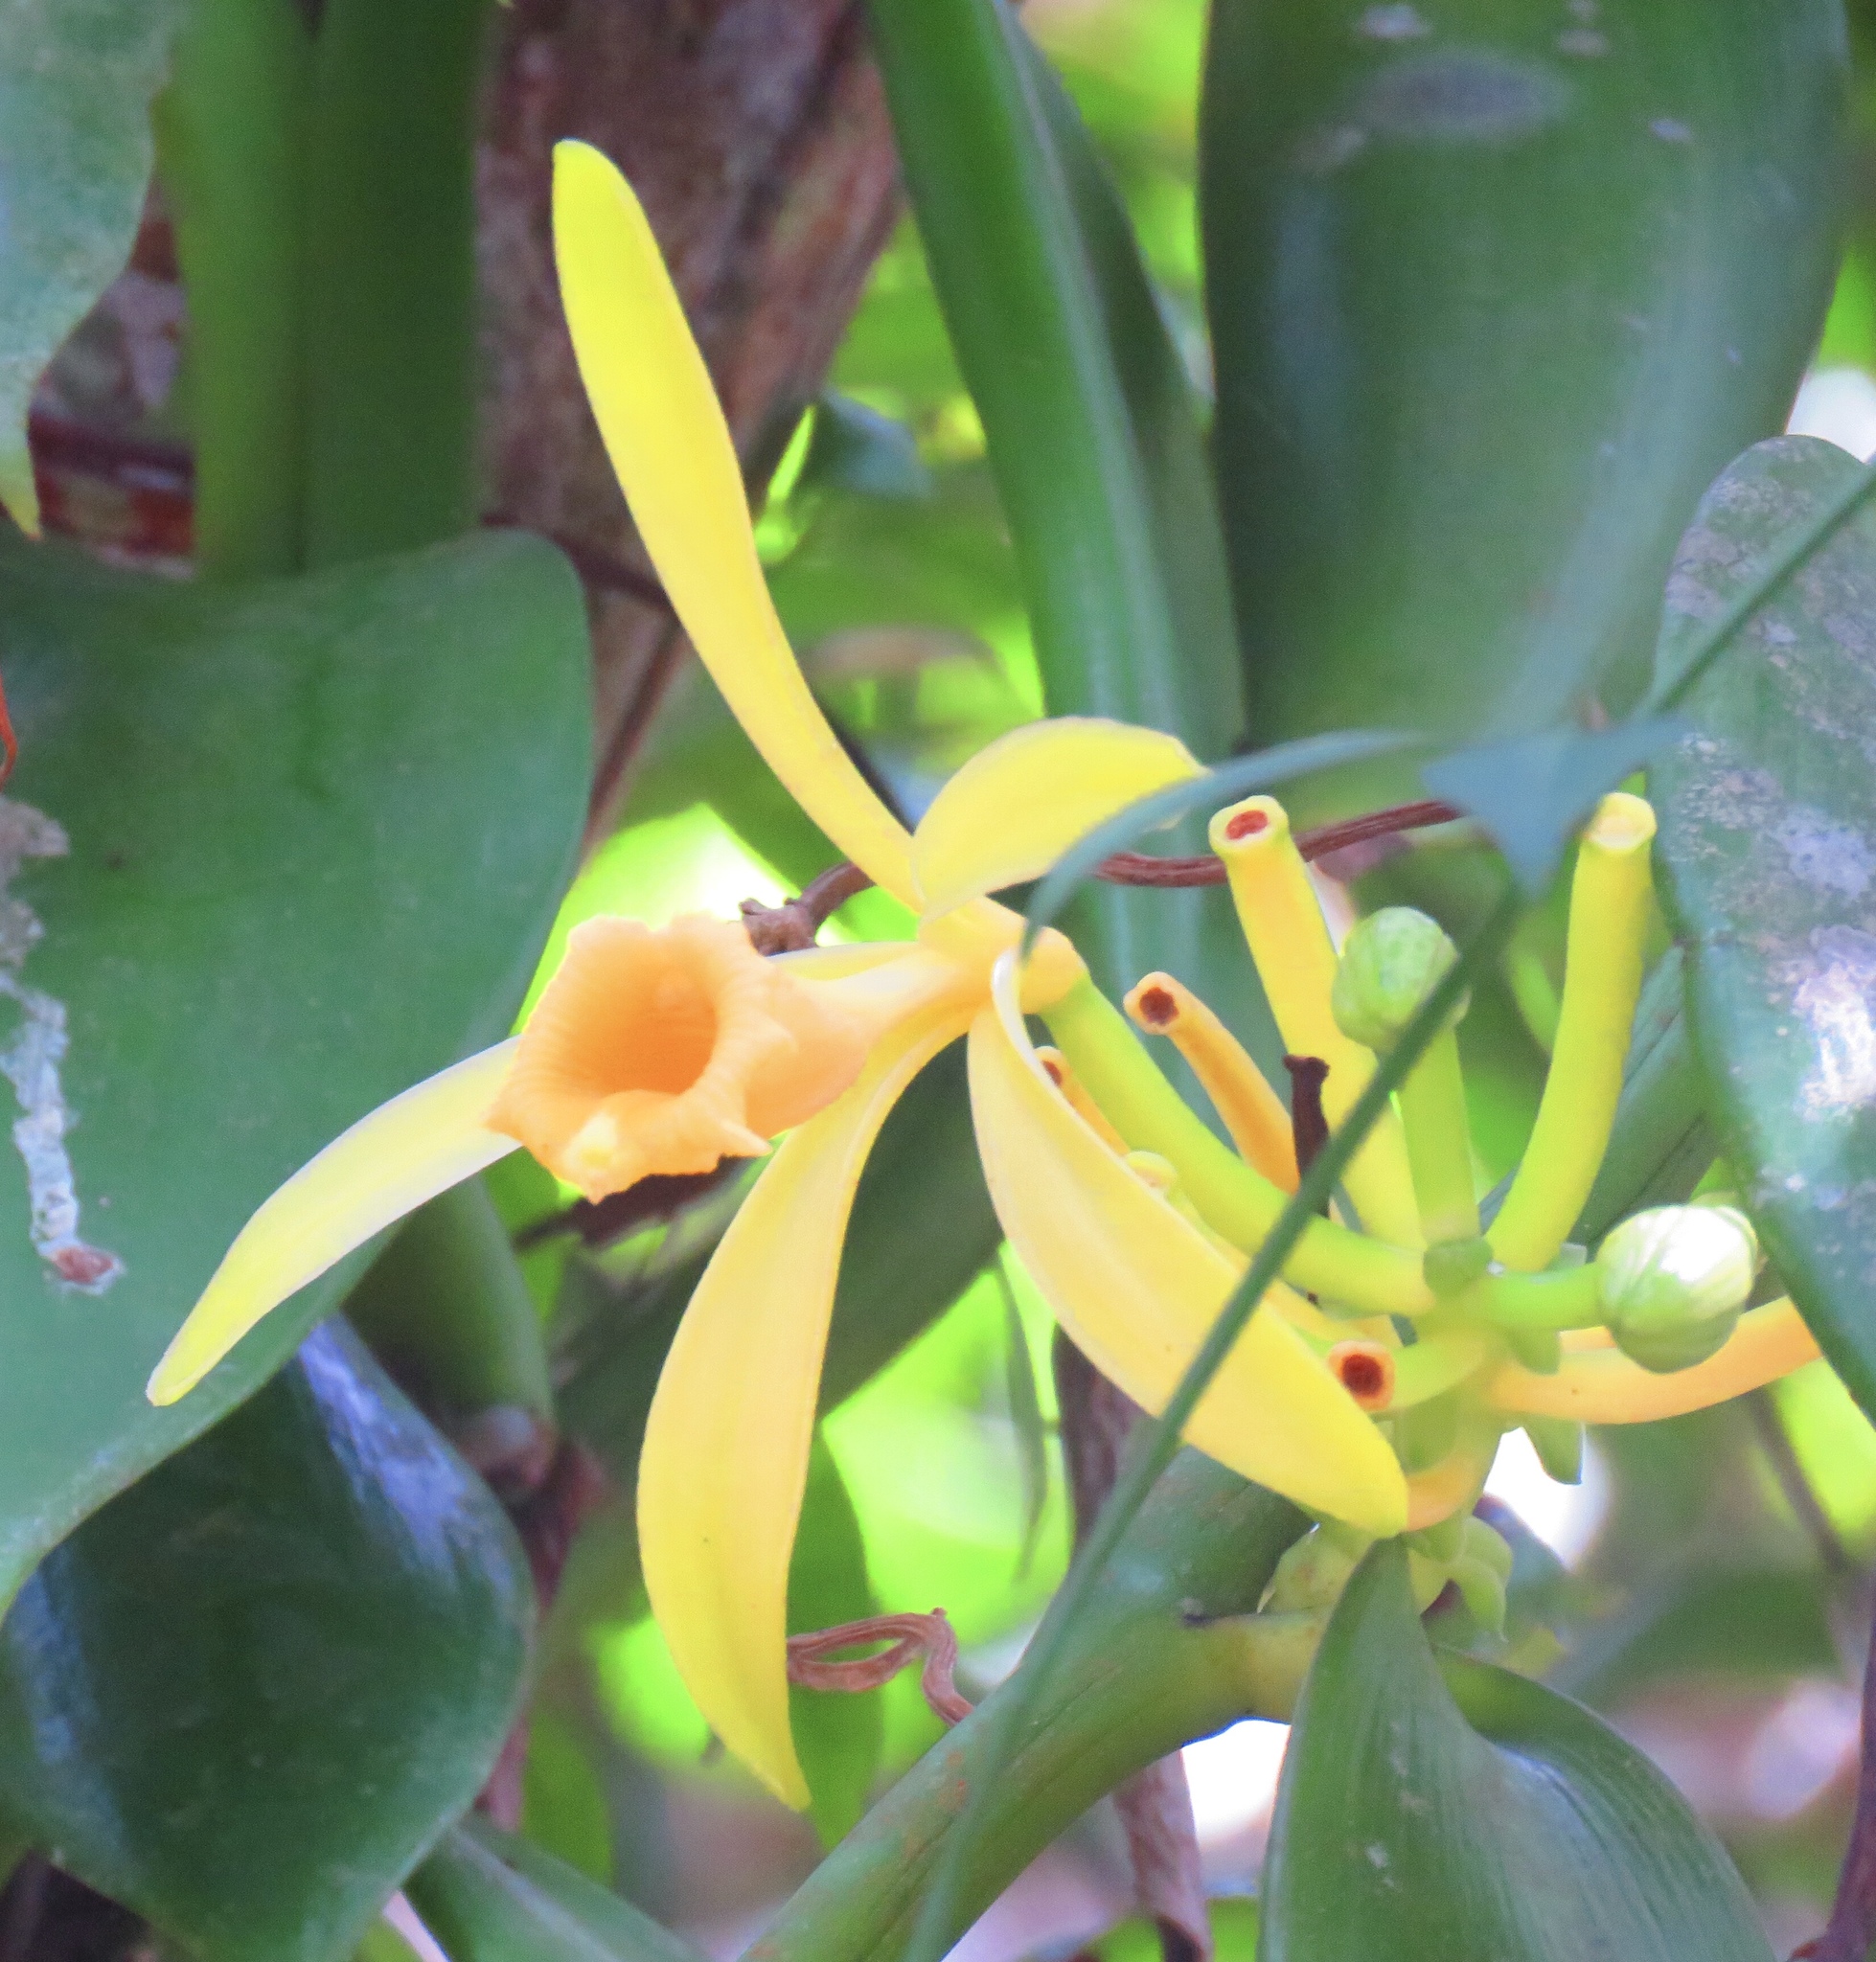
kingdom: Plantae
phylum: Tracheophyta
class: Liliopsida
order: Asparagales
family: Orchidaceae
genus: Vanilla
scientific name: Vanilla pompona
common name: West indian vanilla
